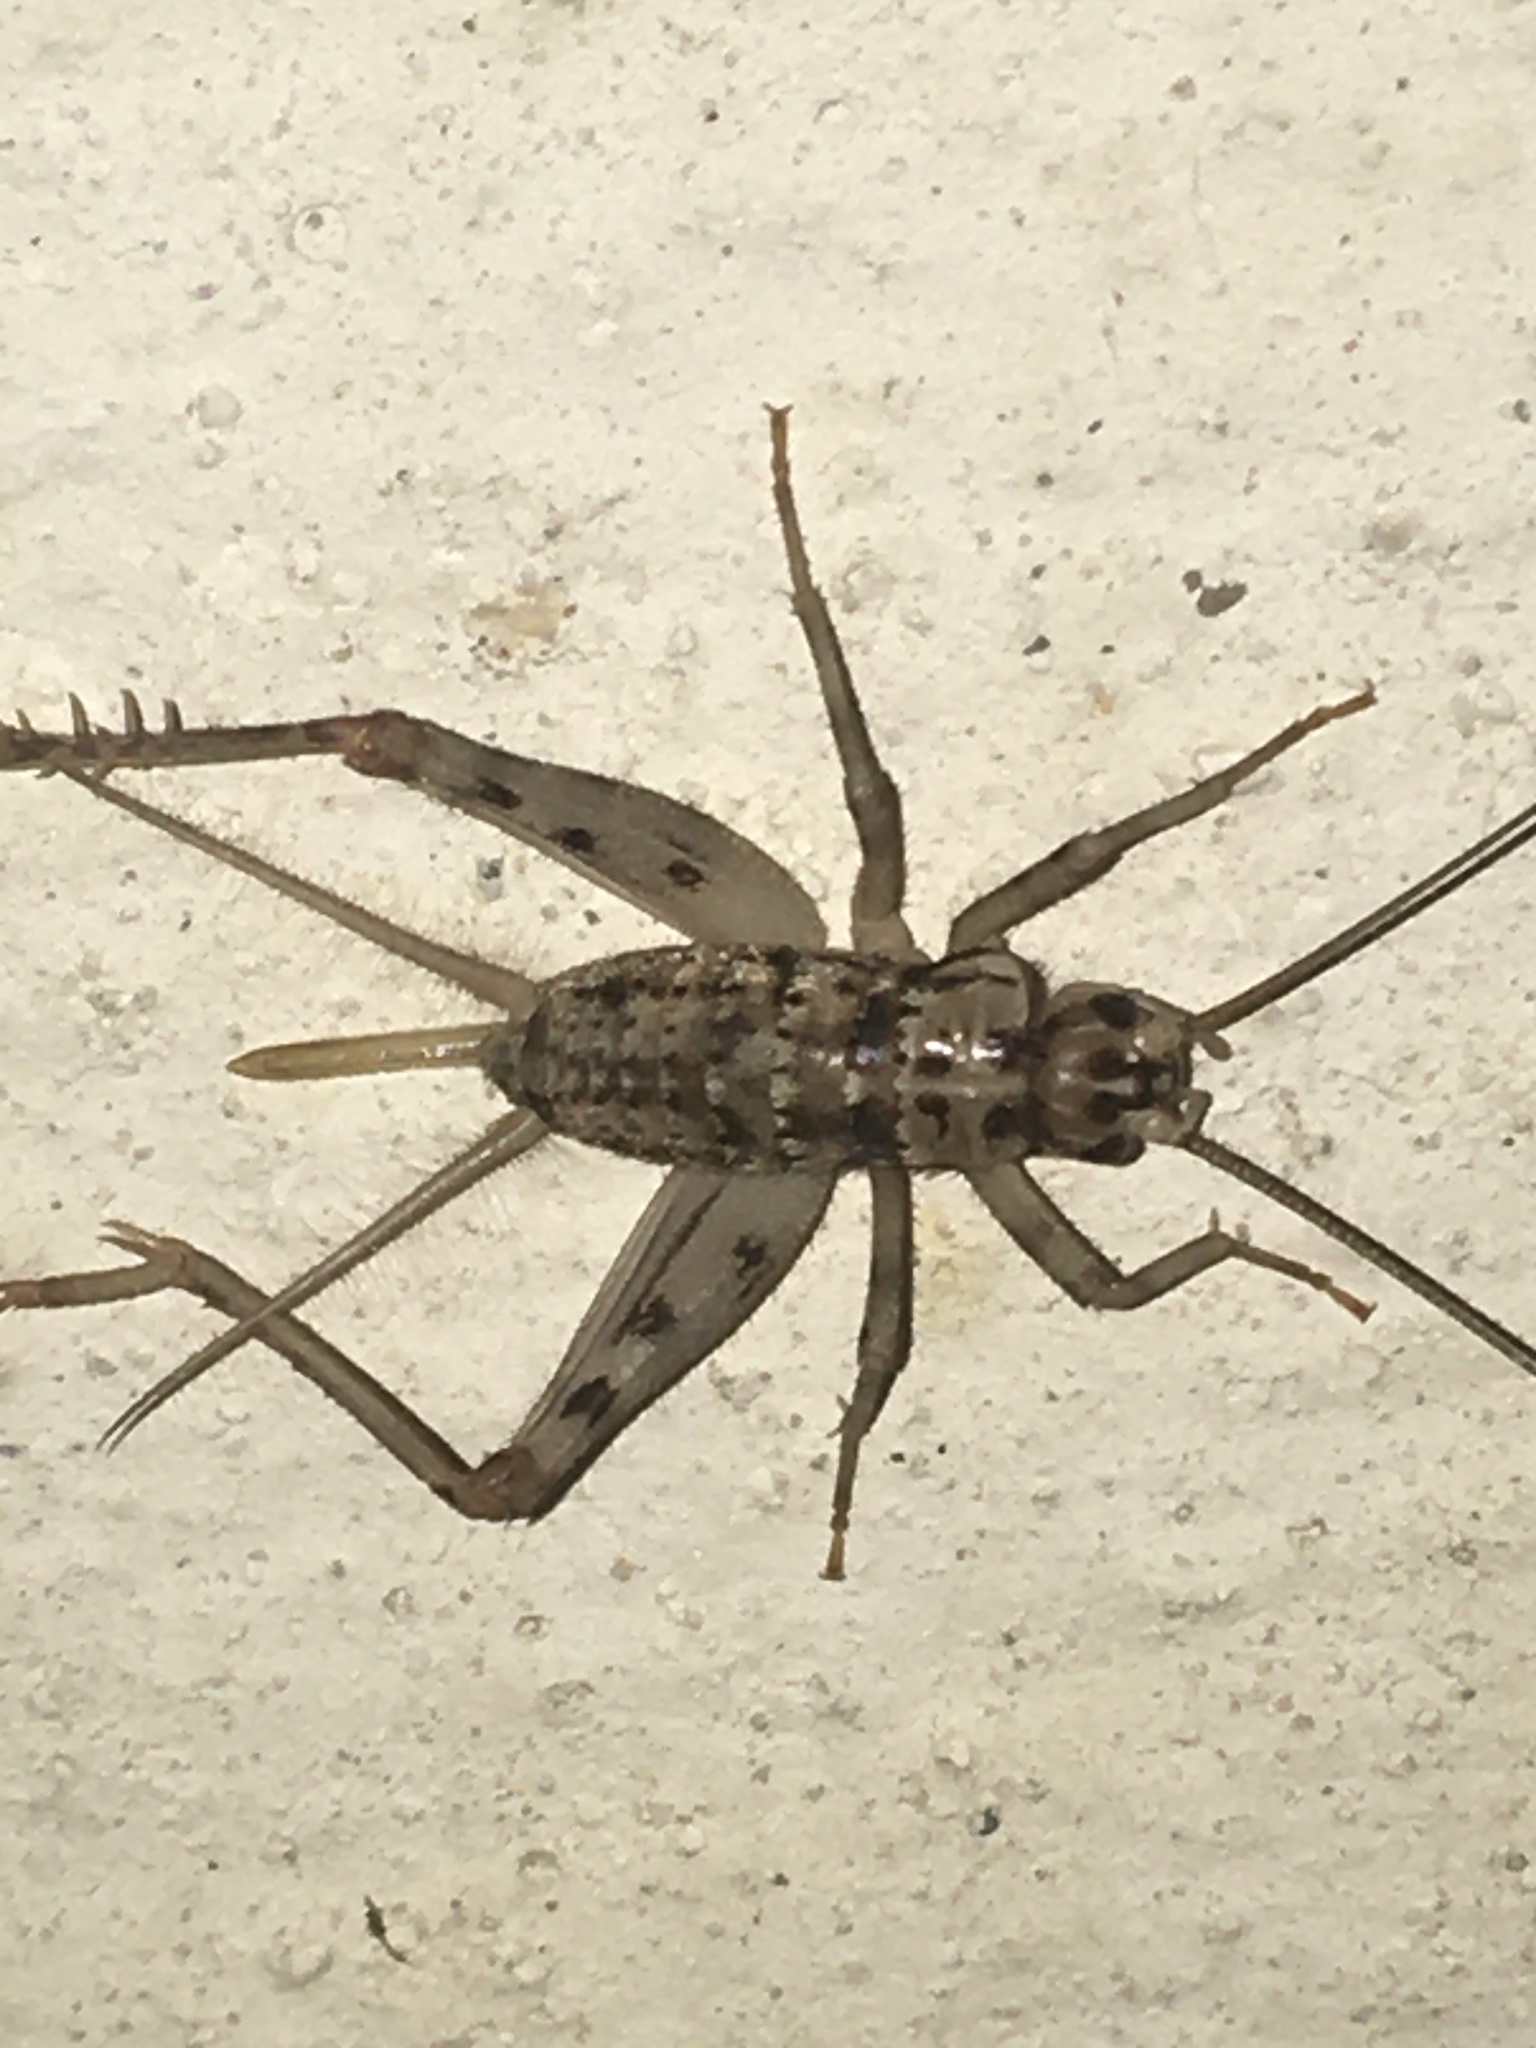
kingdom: Animalia
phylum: Arthropoda
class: Insecta
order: Orthoptera
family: Gryllidae
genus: Gryllomorpha
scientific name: Gryllomorpha dalmatina
